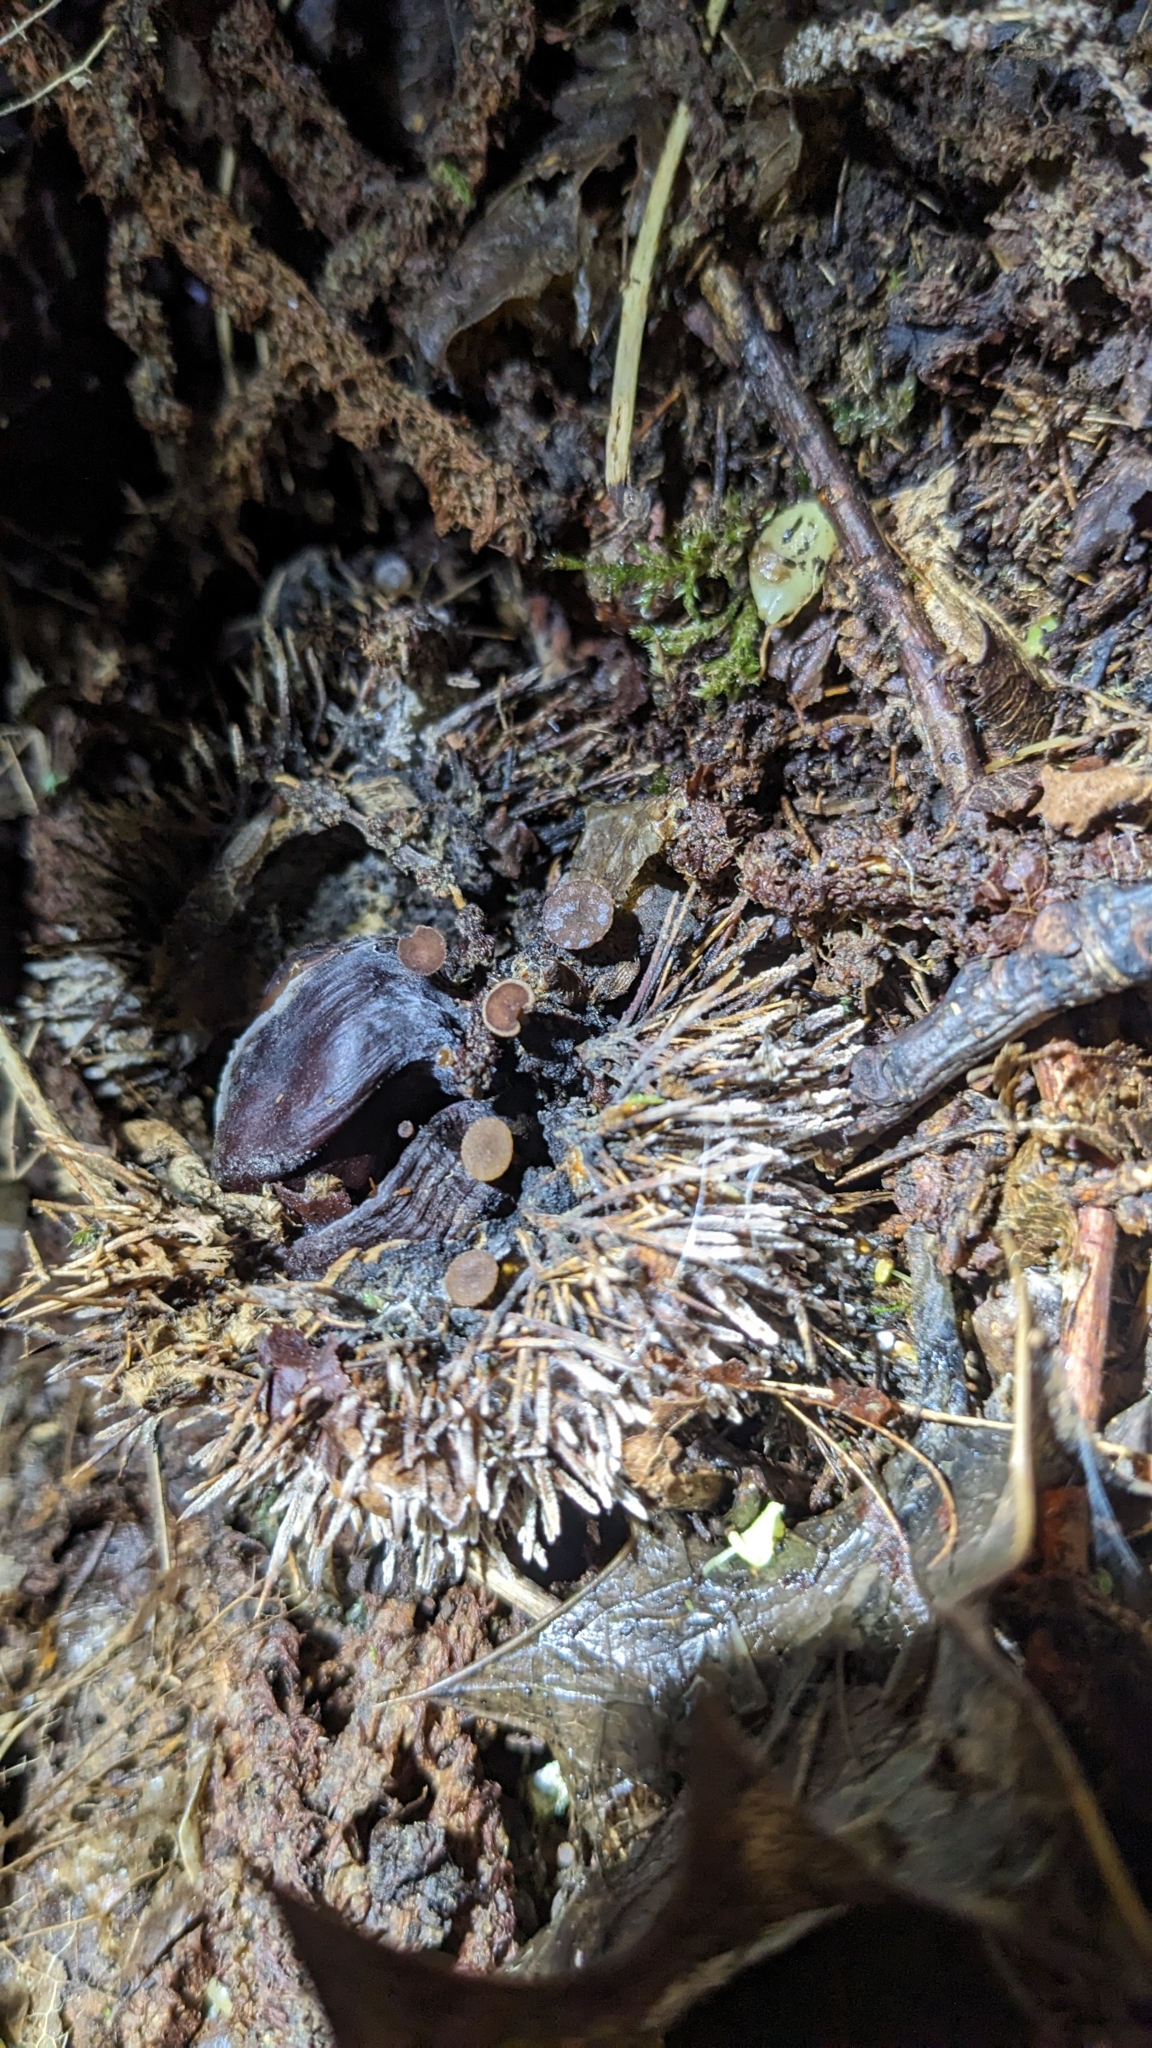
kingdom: Fungi
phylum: Ascomycota
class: Leotiomycetes
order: Helotiales
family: Rutstroemiaceae
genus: Lanzia
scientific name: Lanzia echinophila
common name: Hairy nuts disco
